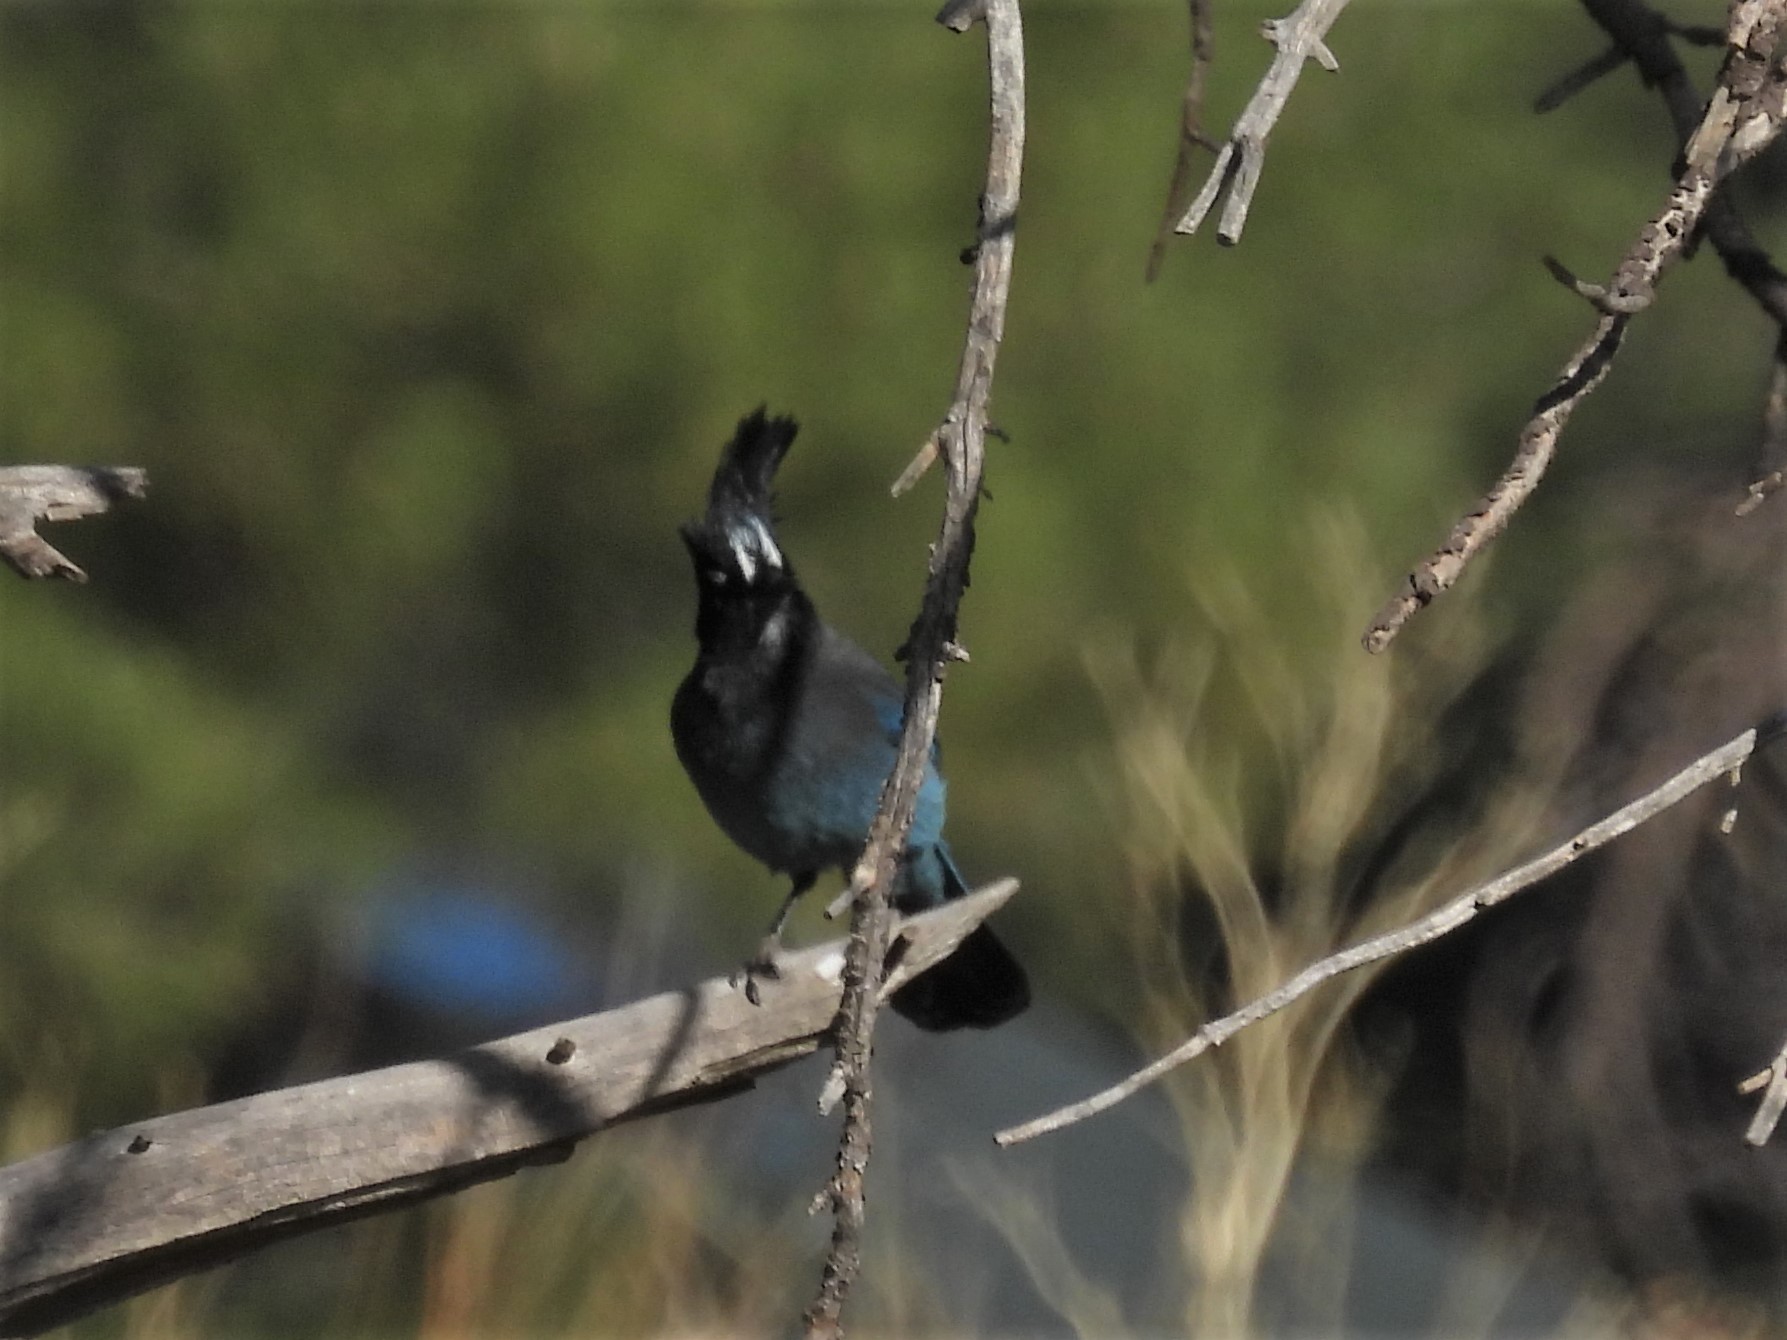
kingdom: Animalia
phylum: Chordata
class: Aves
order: Passeriformes
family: Corvidae
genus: Cyanocitta
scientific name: Cyanocitta stelleri
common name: Steller's jay
